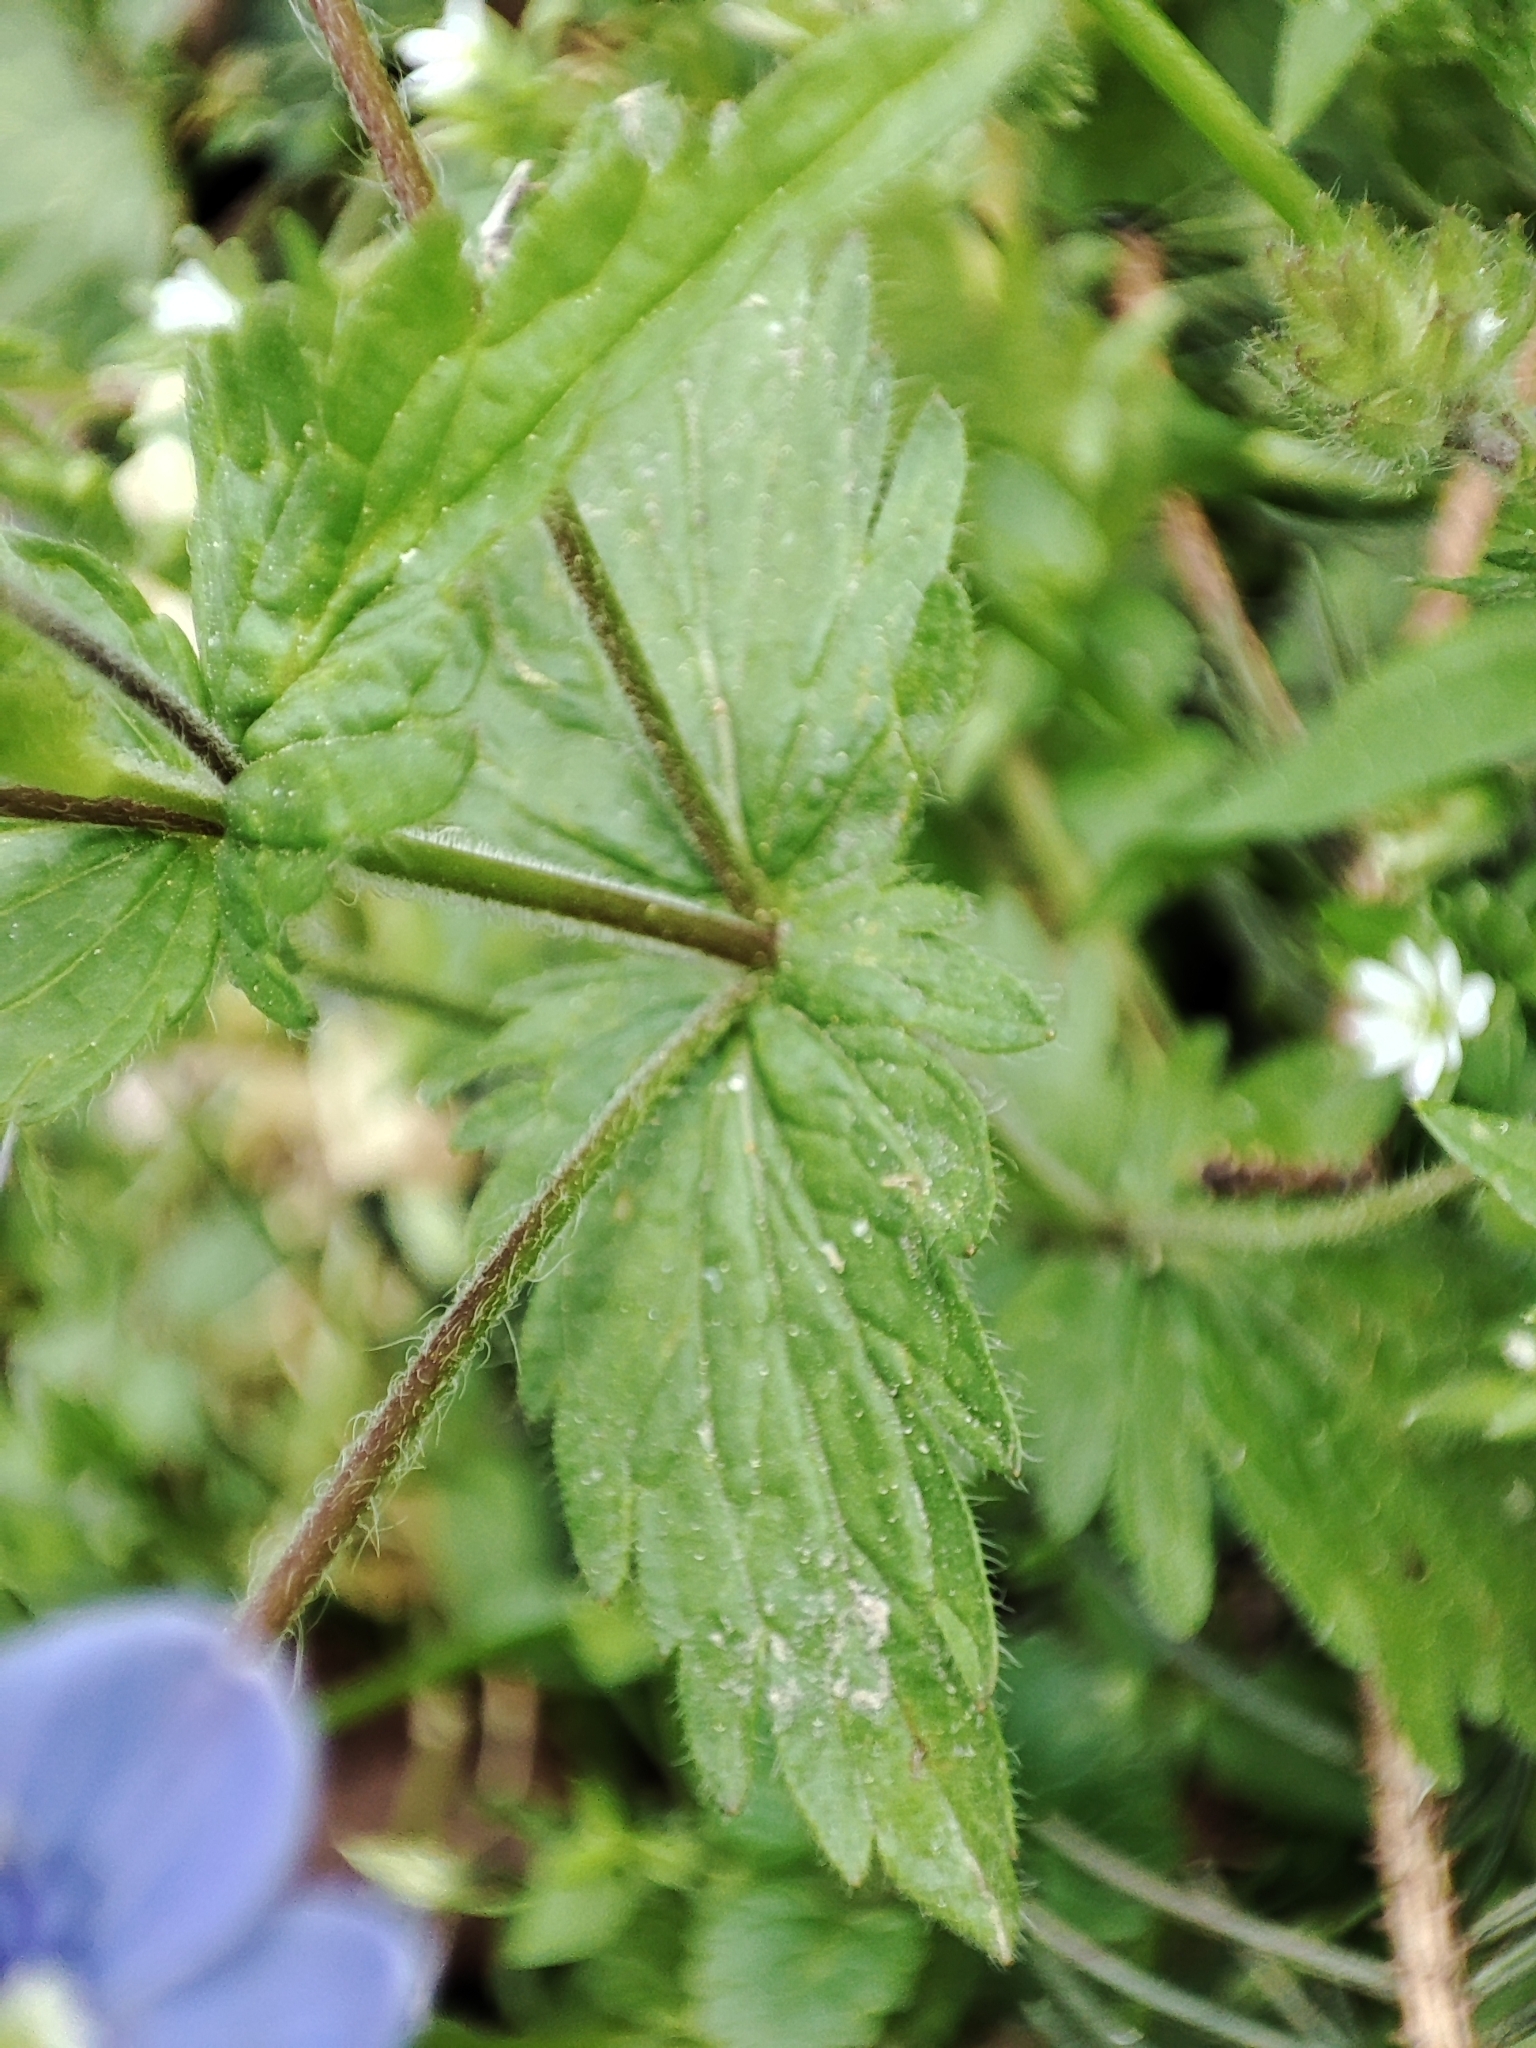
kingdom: Plantae
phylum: Tracheophyta
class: Magnoliopsida
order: Lamiales
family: Plantaginaceae
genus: Veronica
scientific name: Veronica chamaedrys
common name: Germander speedwell
